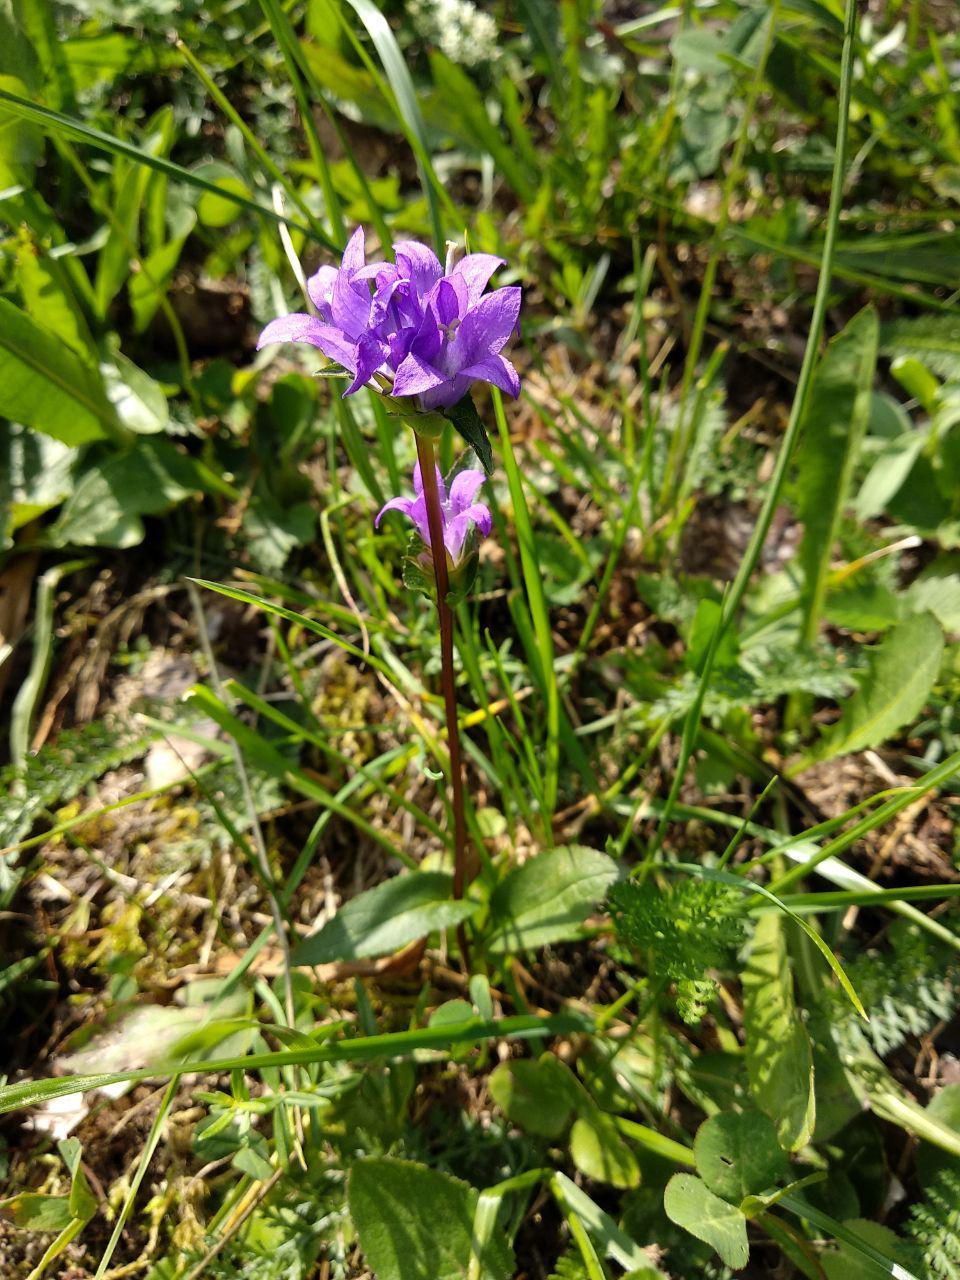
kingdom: Plantae
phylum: Tracheophyta
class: Magnoliopsida
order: Asterales
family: Campanulaceae
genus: Campanula
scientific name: Campanula glomerata
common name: Clustered bellflower
